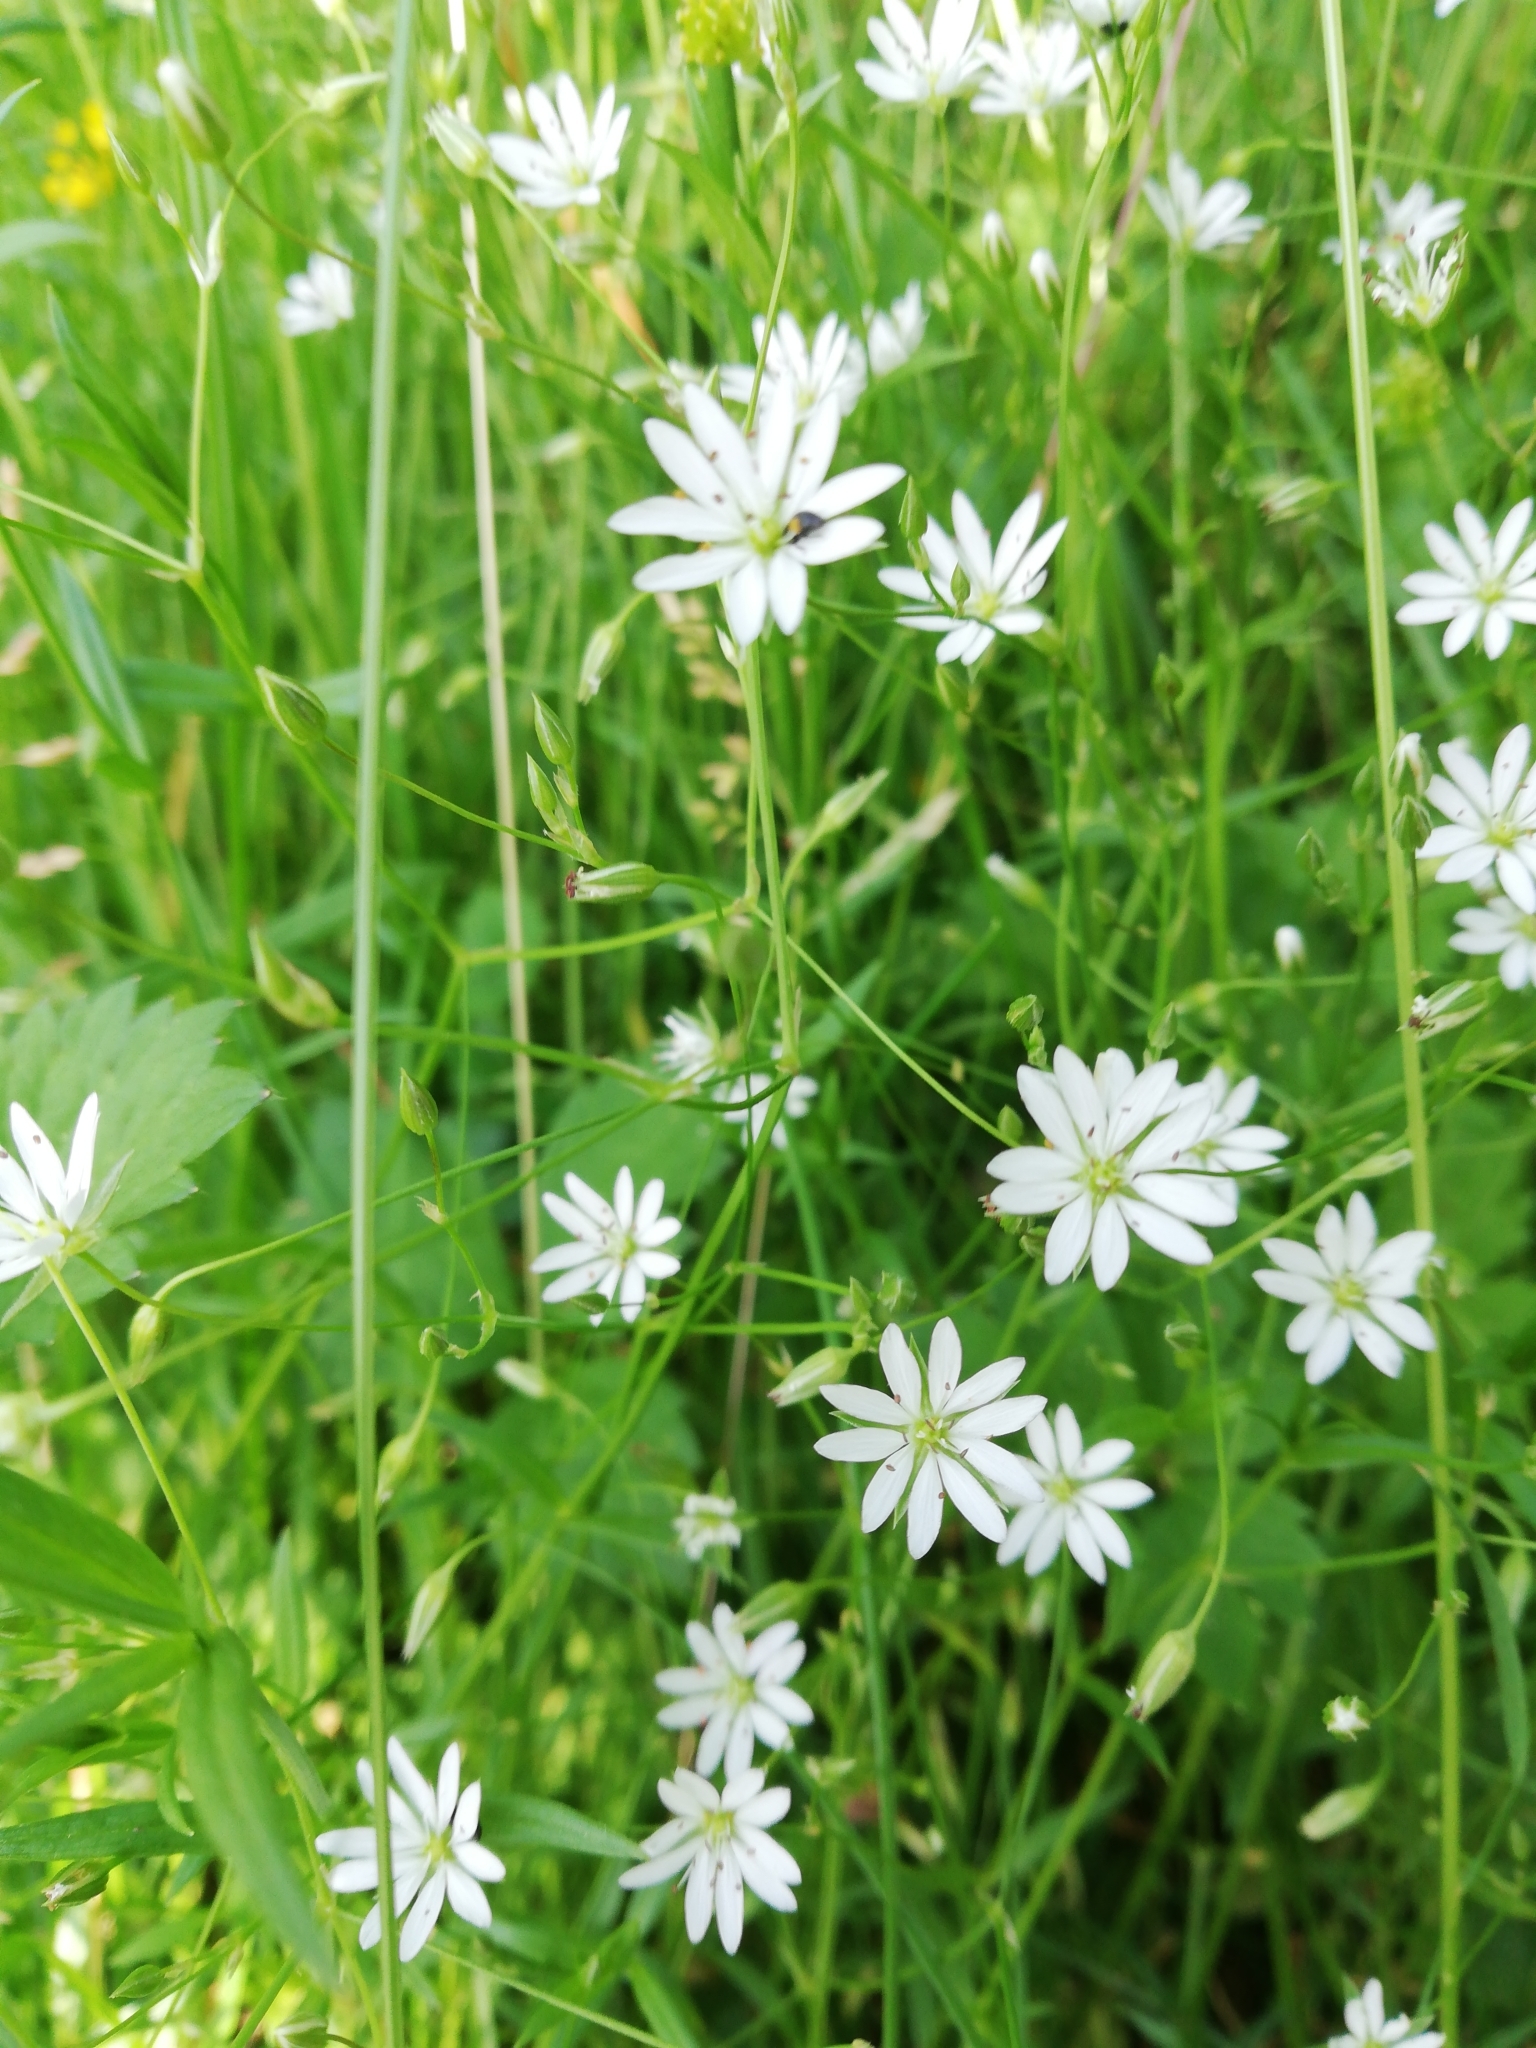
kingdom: Plantae
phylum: Tracheophyta
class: Magnoliopsida
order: Caryophyllales
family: Caryophyllaceae
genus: Stellaria
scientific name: Stellaria graminea
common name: Grass-like starwort
